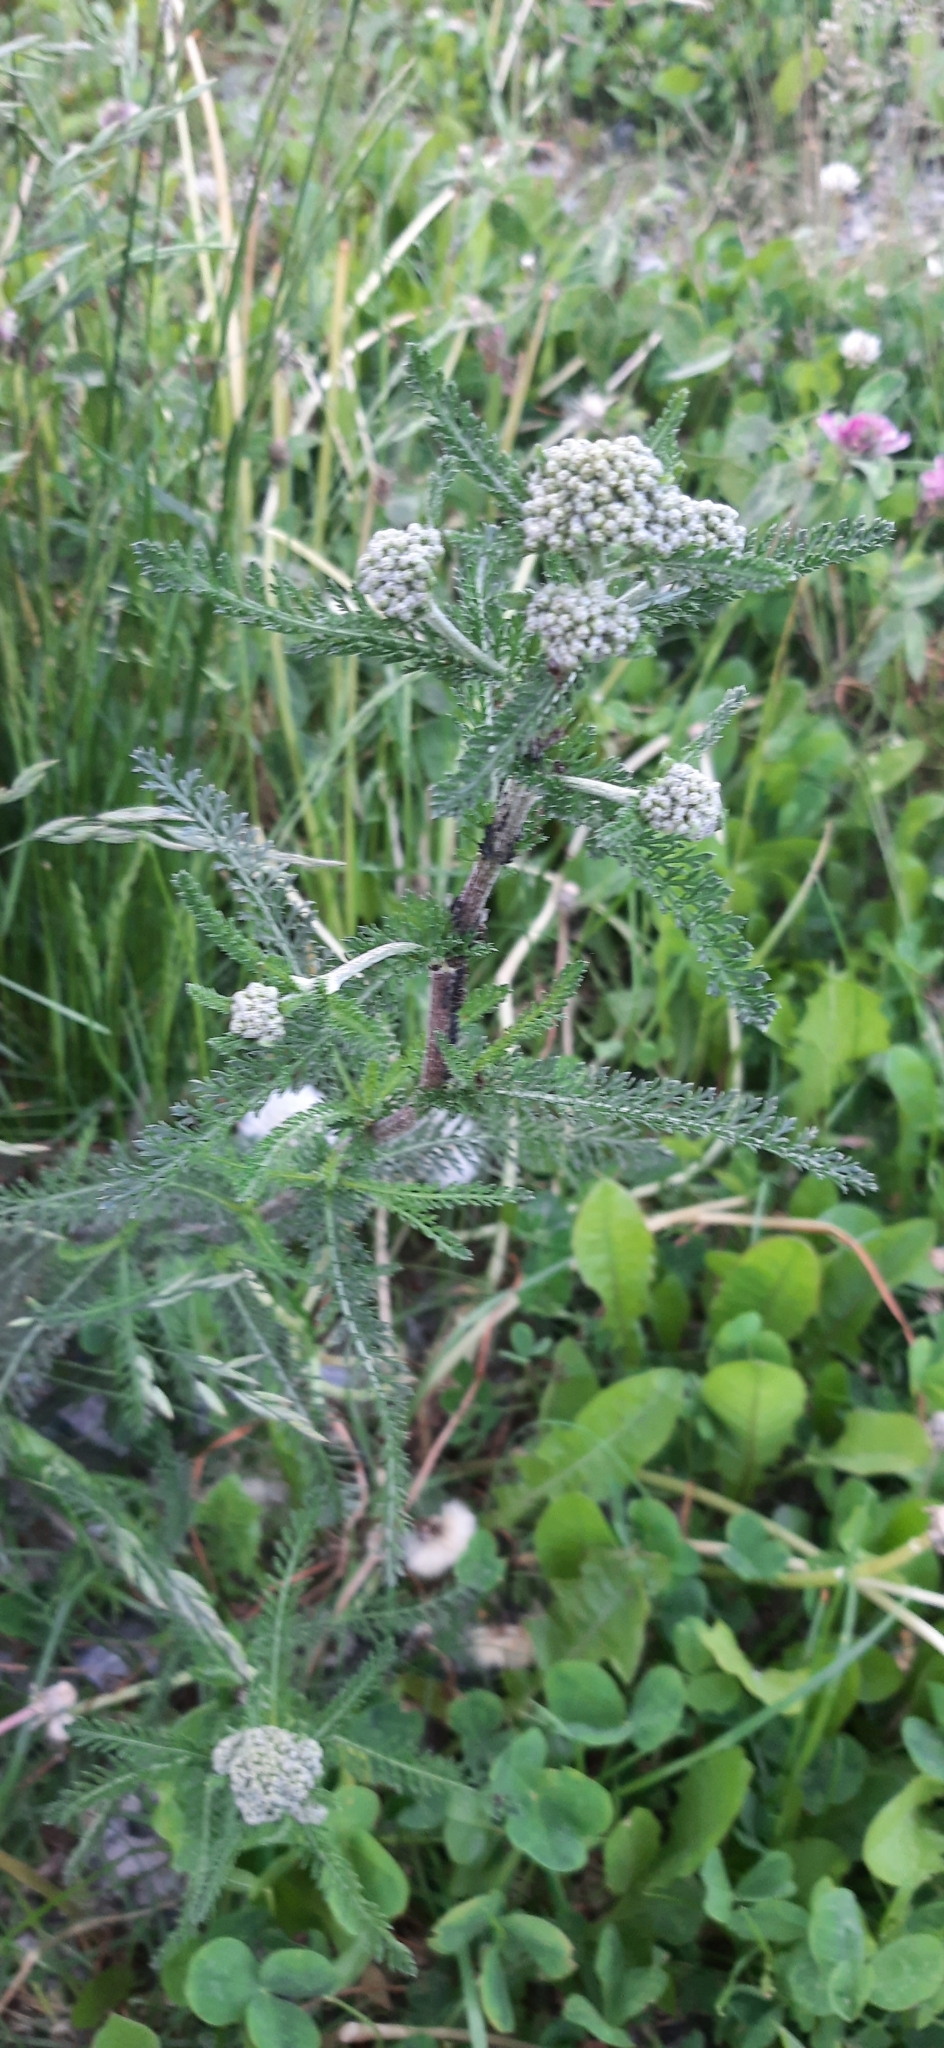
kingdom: Plantae
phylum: Tracheophyta
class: Magnoliopsida
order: Asterales
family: Asteraceae
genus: Achillea
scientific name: Achillea millefolium
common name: Yarrow
